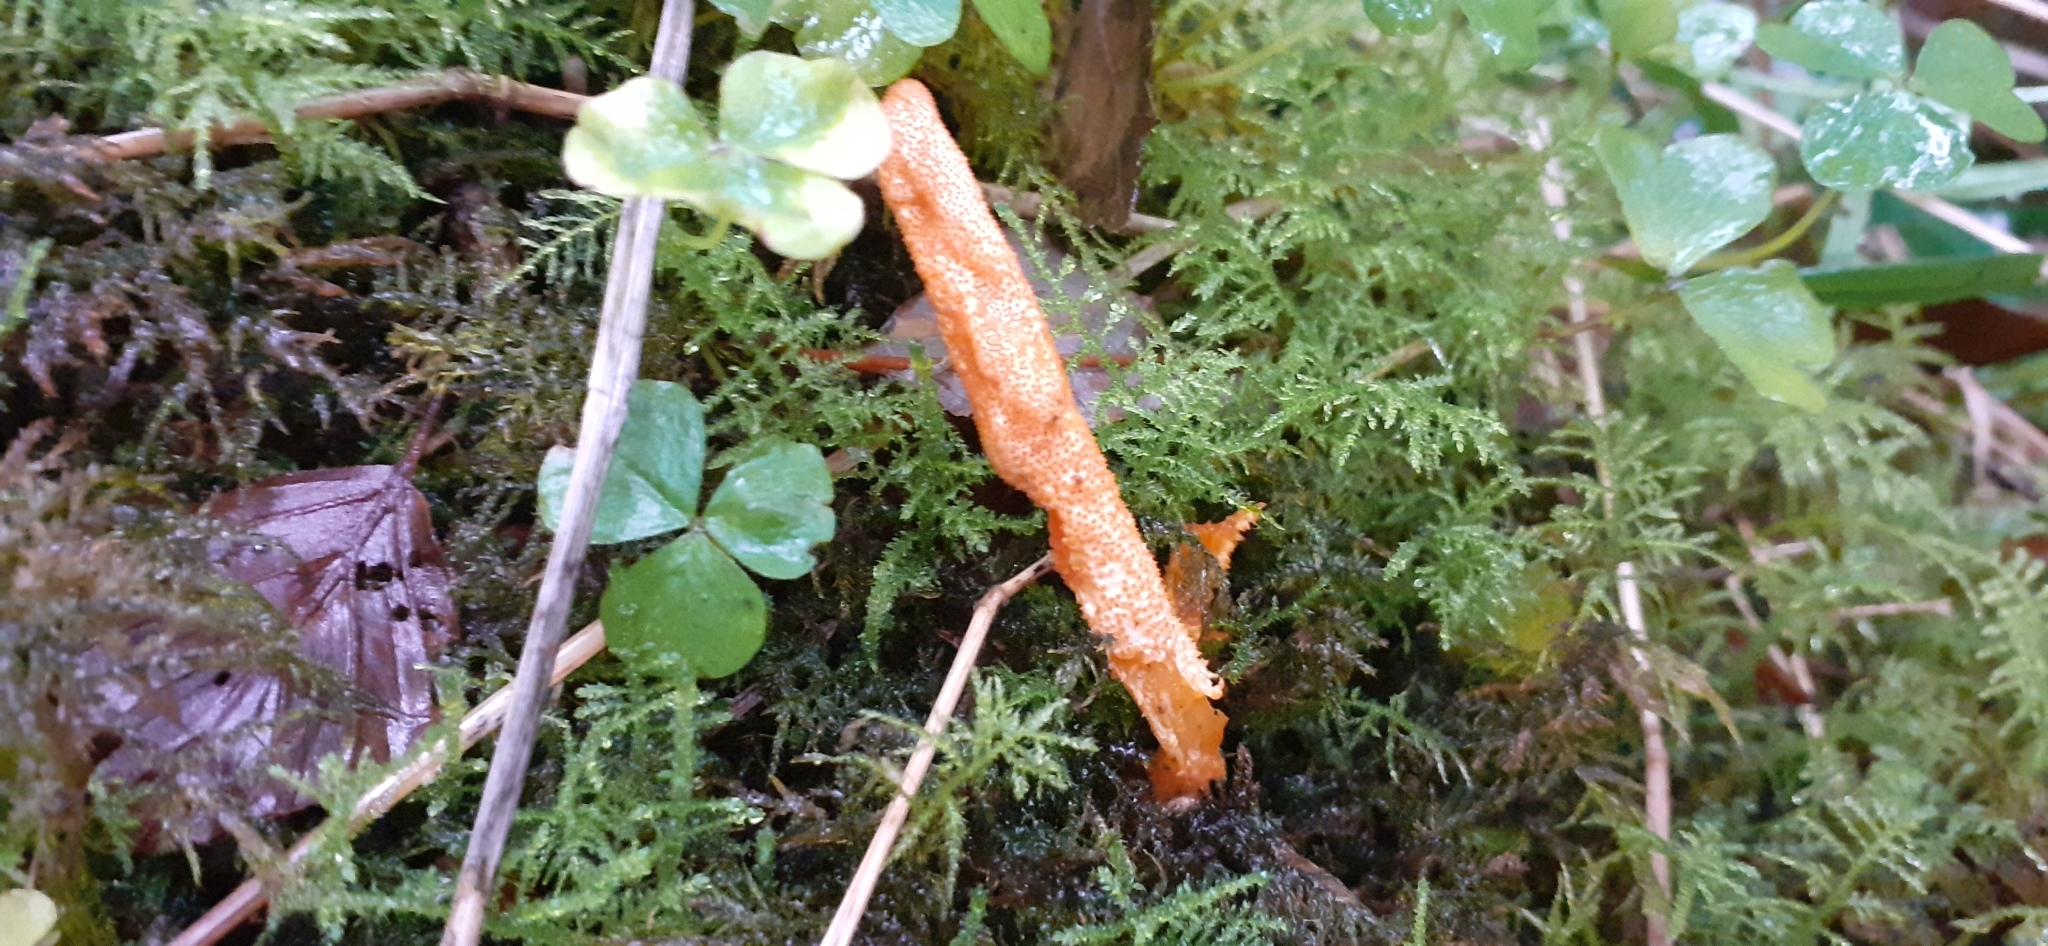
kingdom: Fungi
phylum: Ascomycota
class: Sordariomycetes
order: Hypocreales
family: Cordycipitaceae
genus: Cordyceps
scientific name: Cordyceps militaris
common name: Scarlet caterpillar fungus
